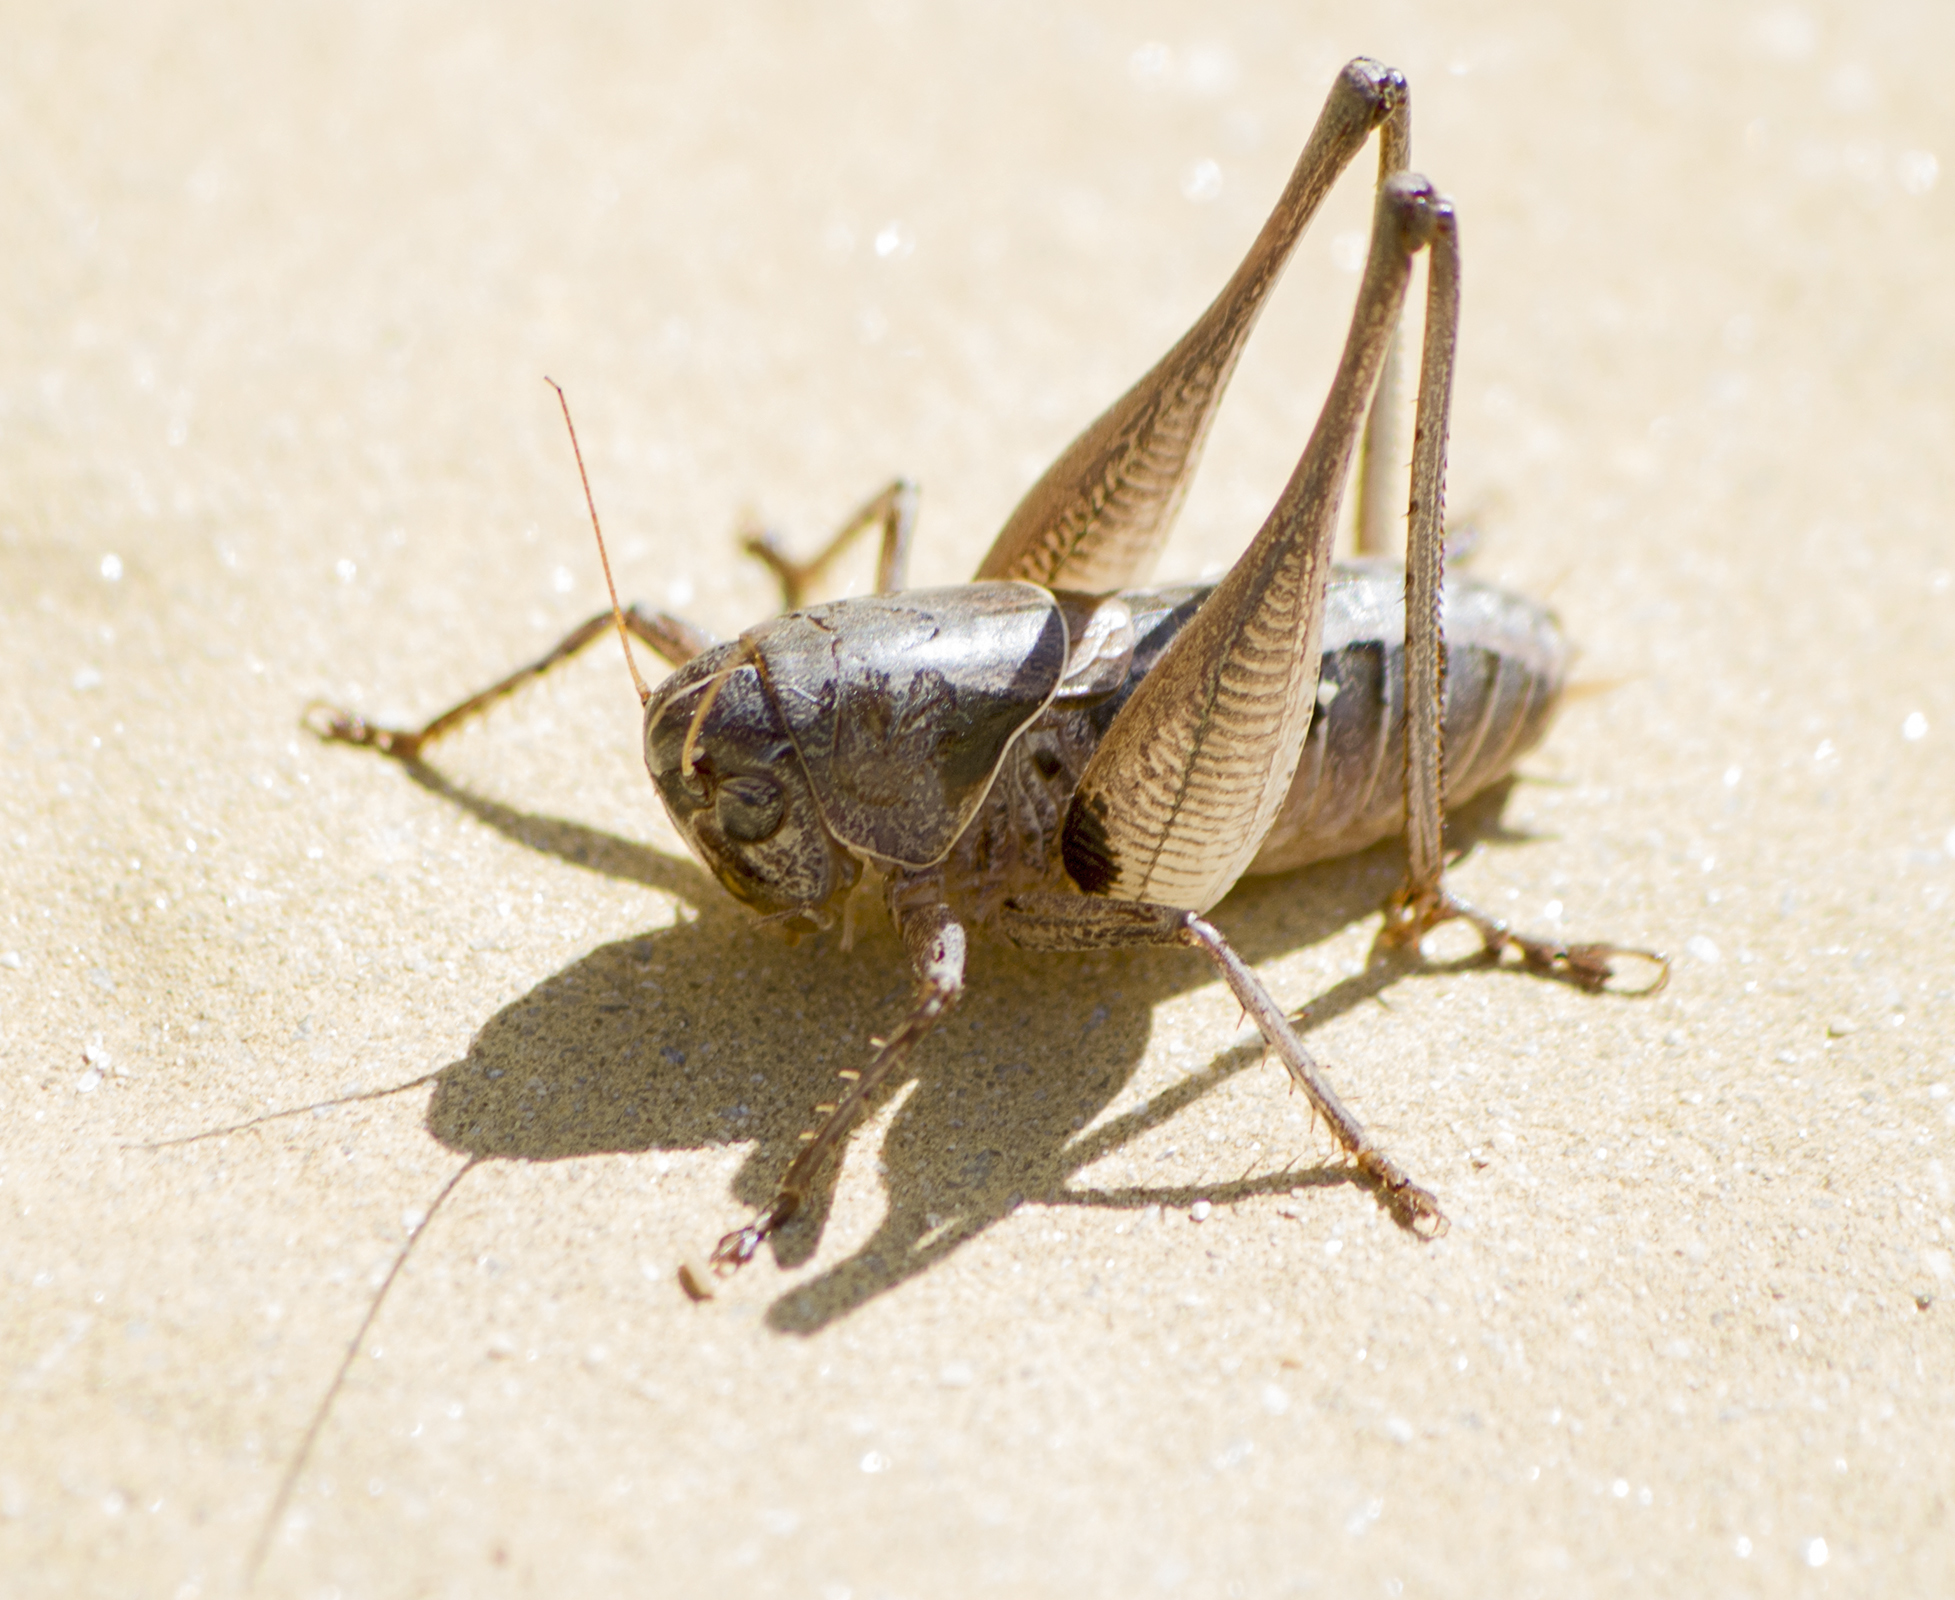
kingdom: Animalia
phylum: Arthropoda
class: Insecta
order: Orthoptera
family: Tettigoniidae
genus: Bucephaloptera
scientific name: Bucephaloptera bucephala
